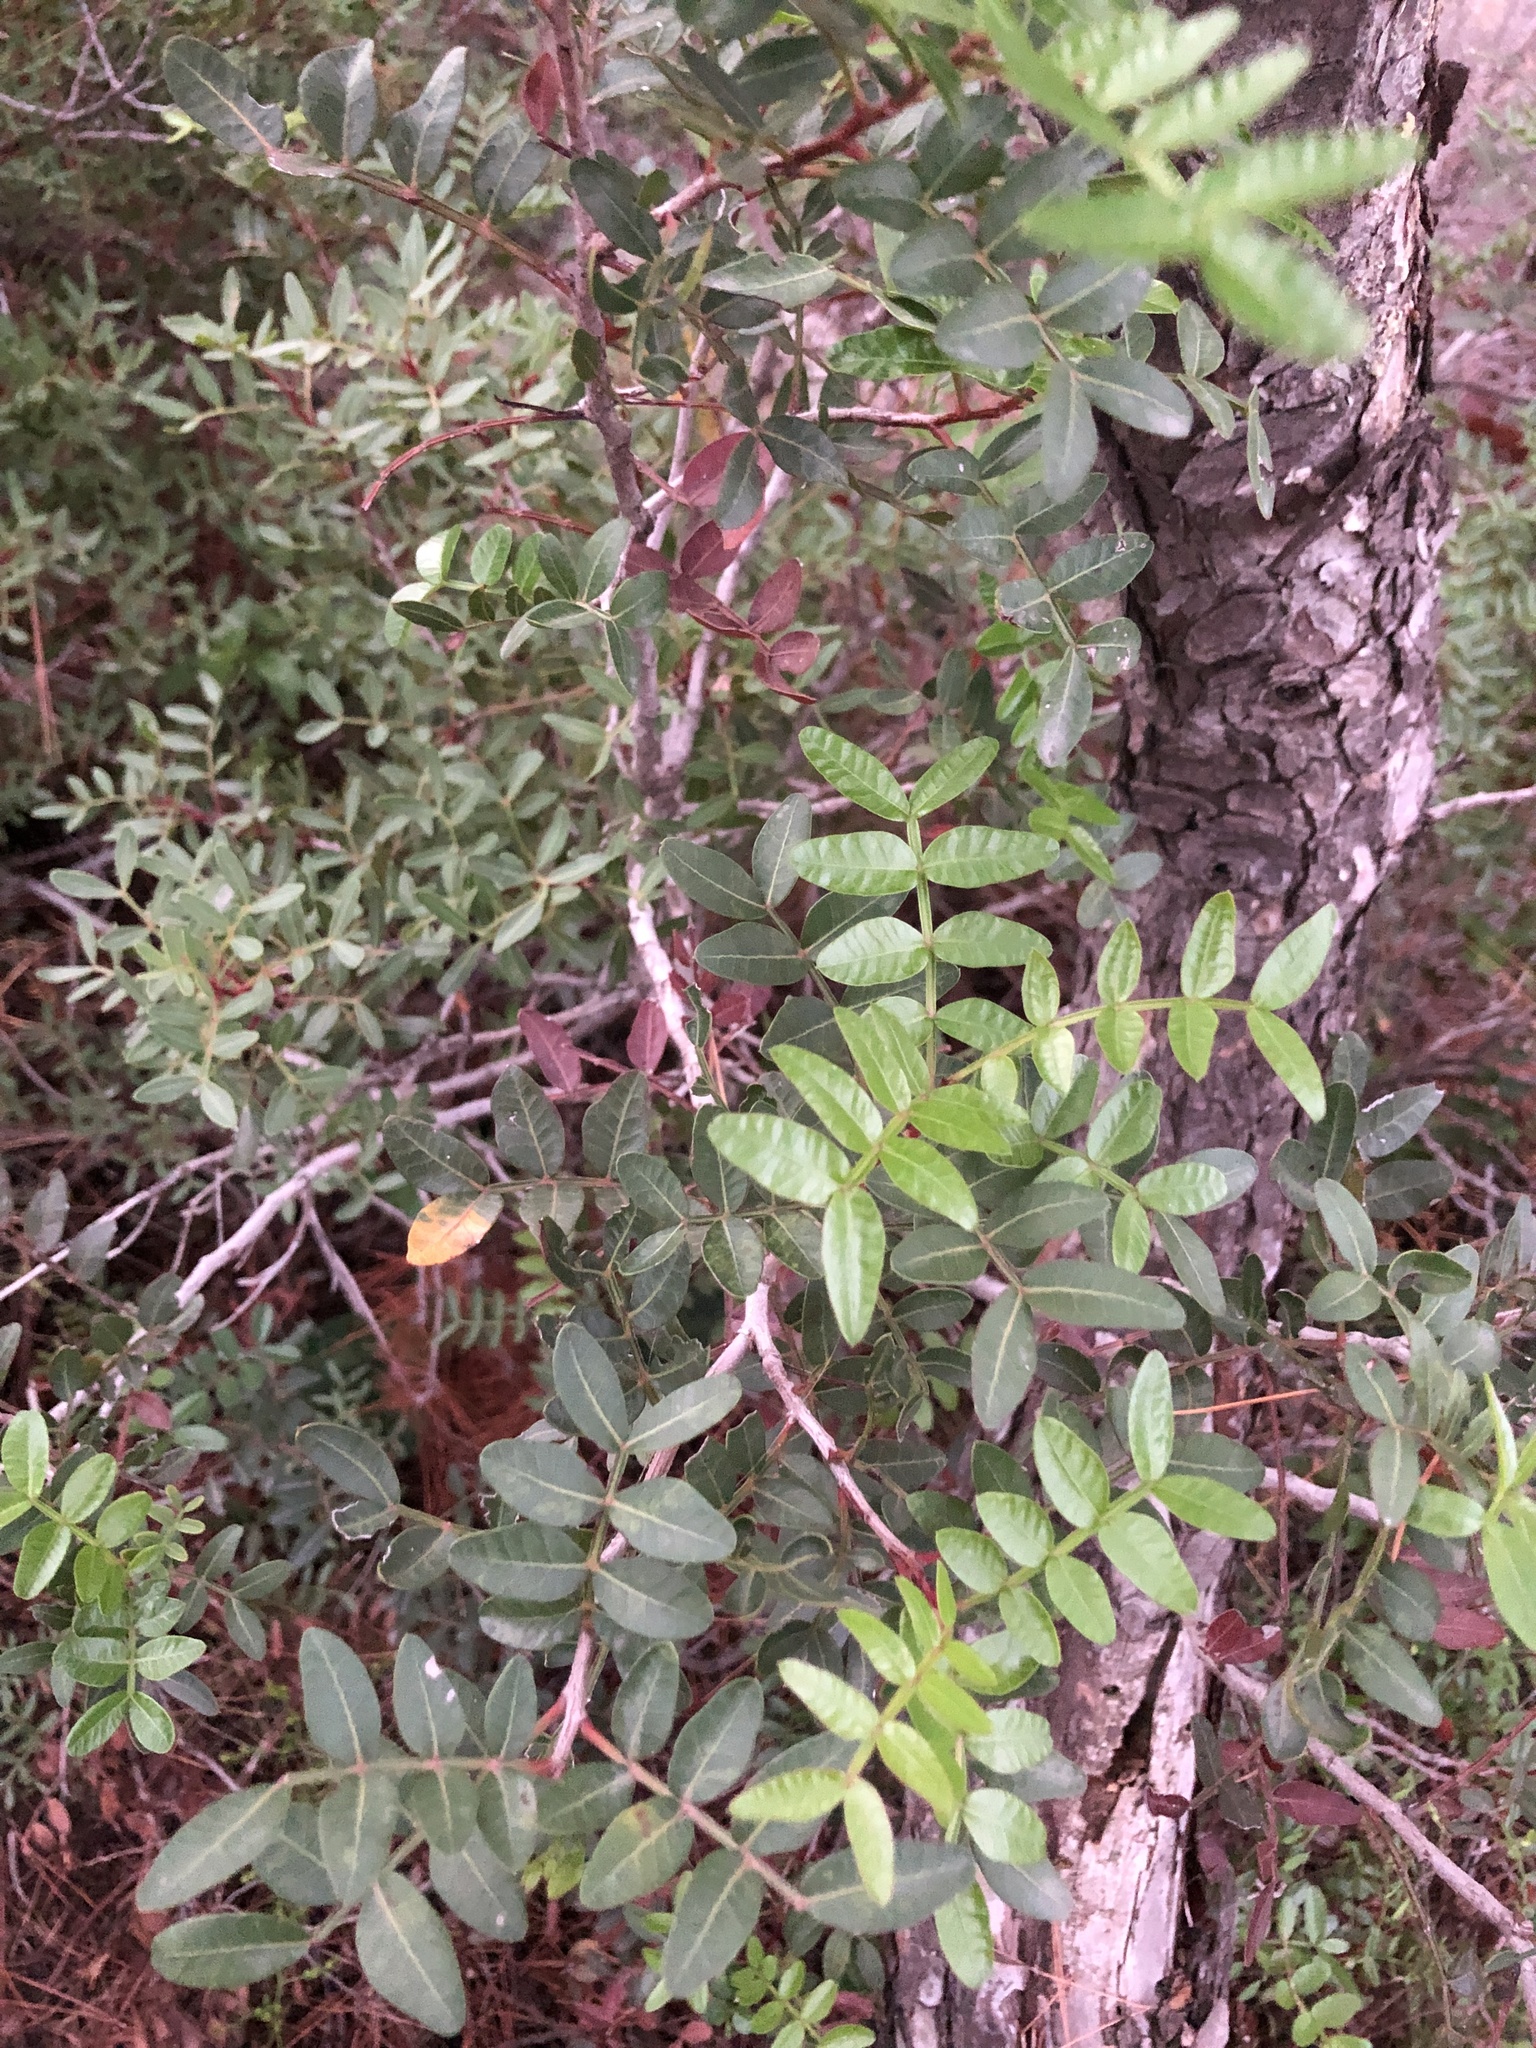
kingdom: Plantae
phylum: Tracheophyta
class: Magnoliopsida
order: Sapindales
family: Anacardiaceae
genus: Pistacia
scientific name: Pistacia lentiscus
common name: Lentisk
